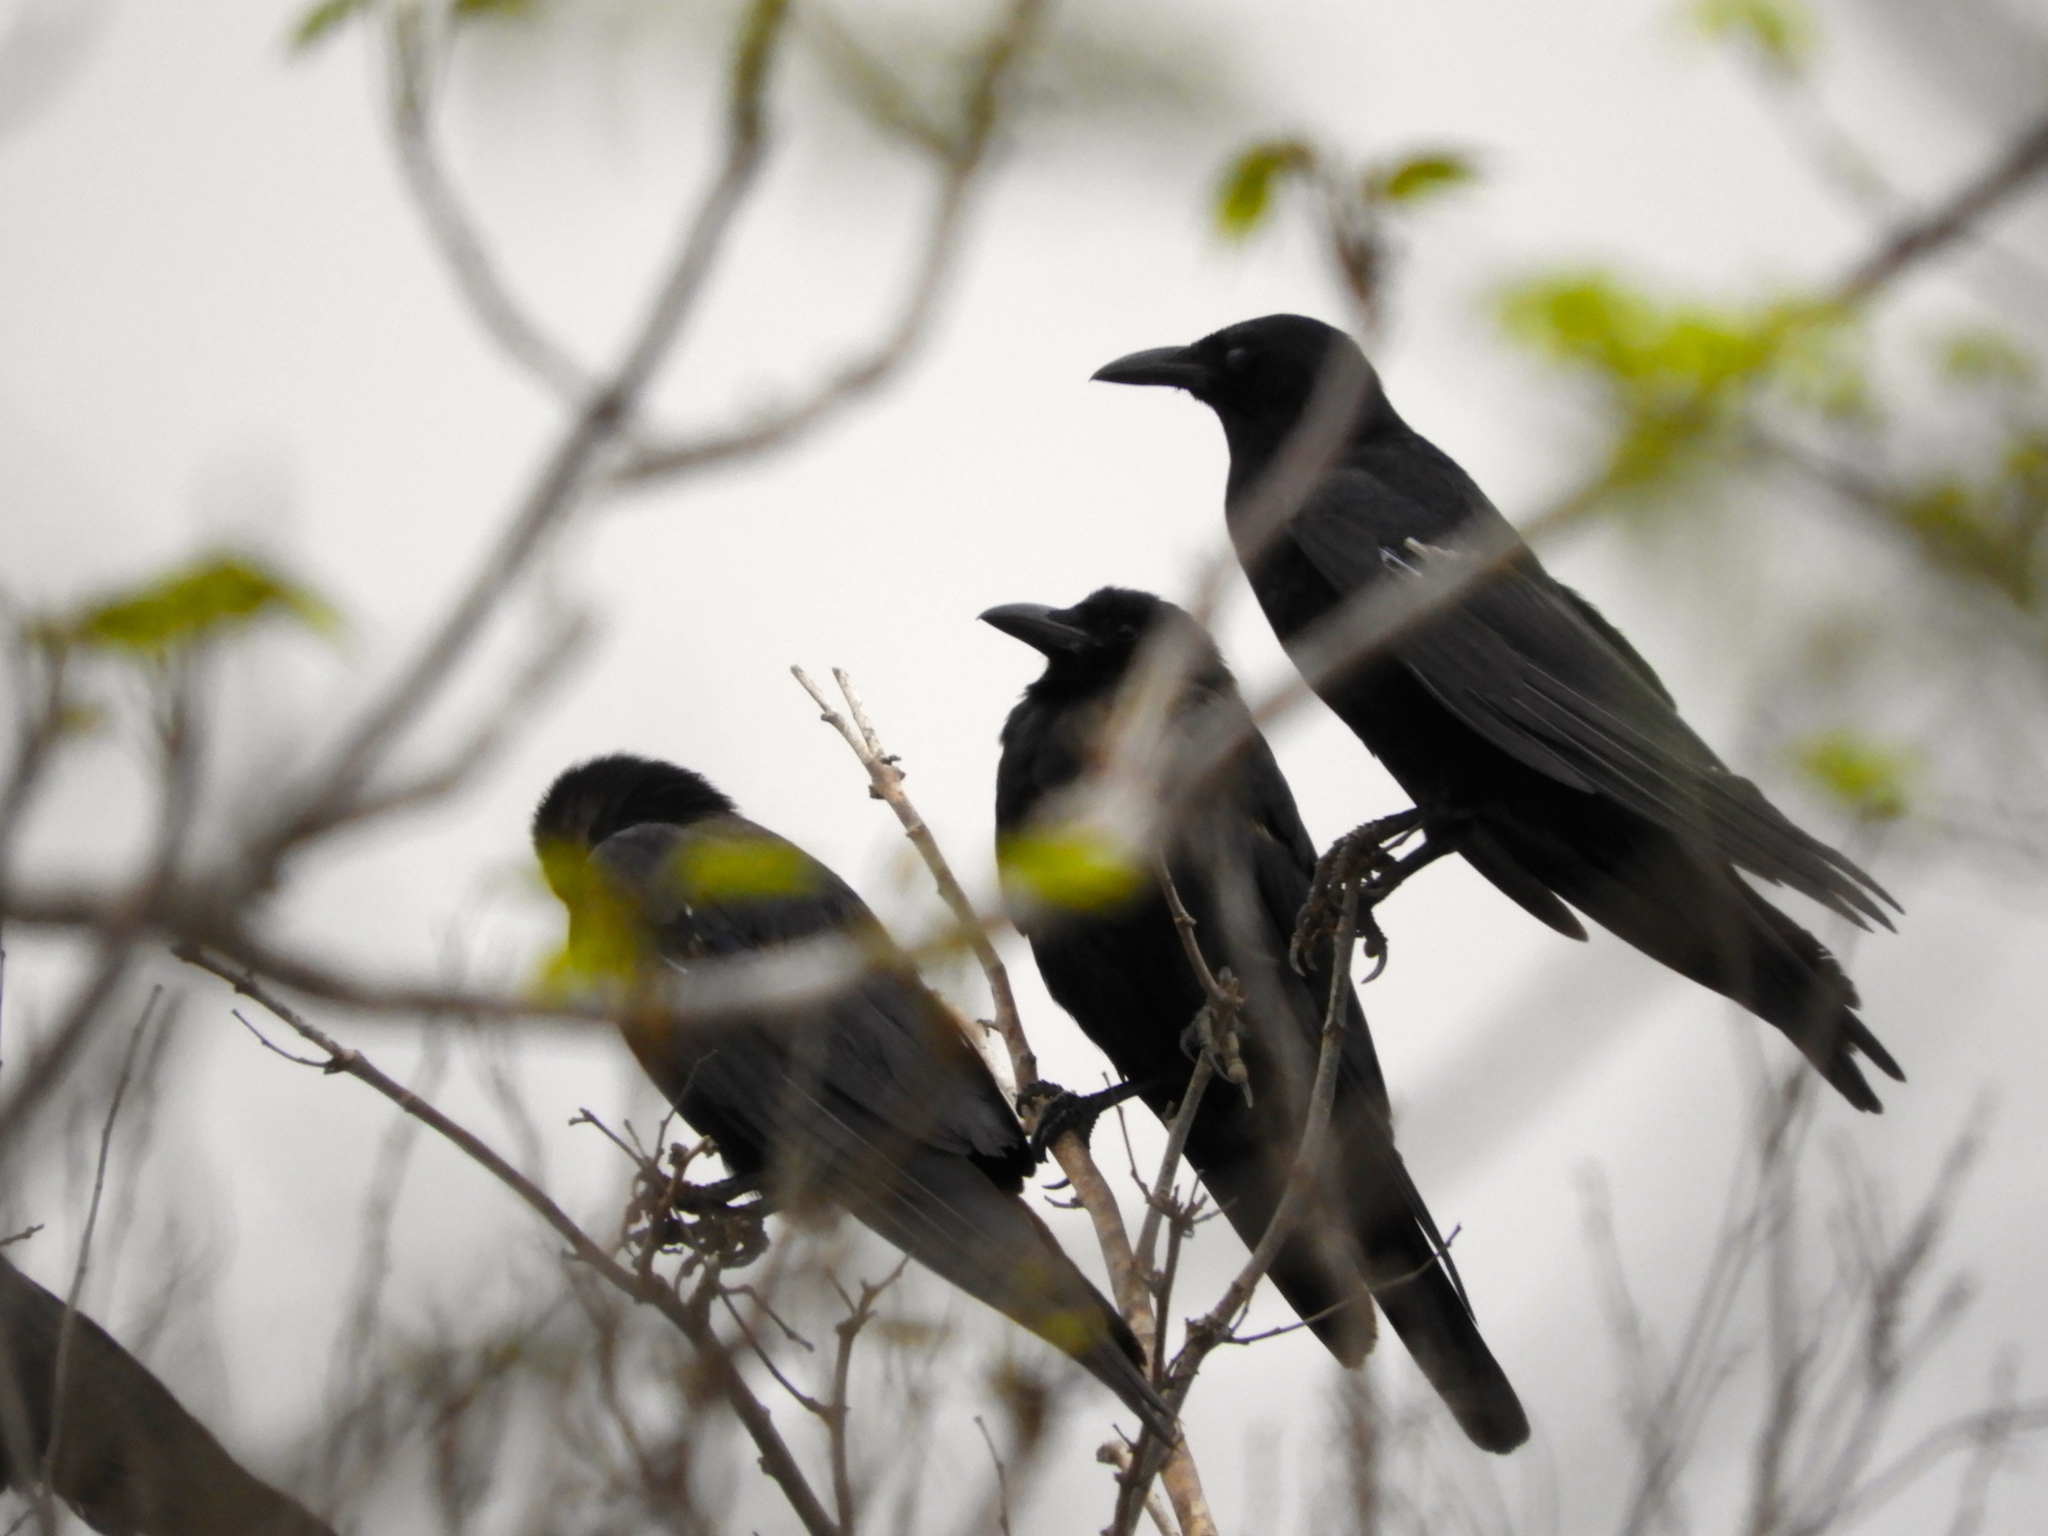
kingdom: Animalia
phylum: Chordata
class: Aves
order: Passeriformes
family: Corvidae
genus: Corvus
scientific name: Corvus sinaloae
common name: Sinaloa crow
